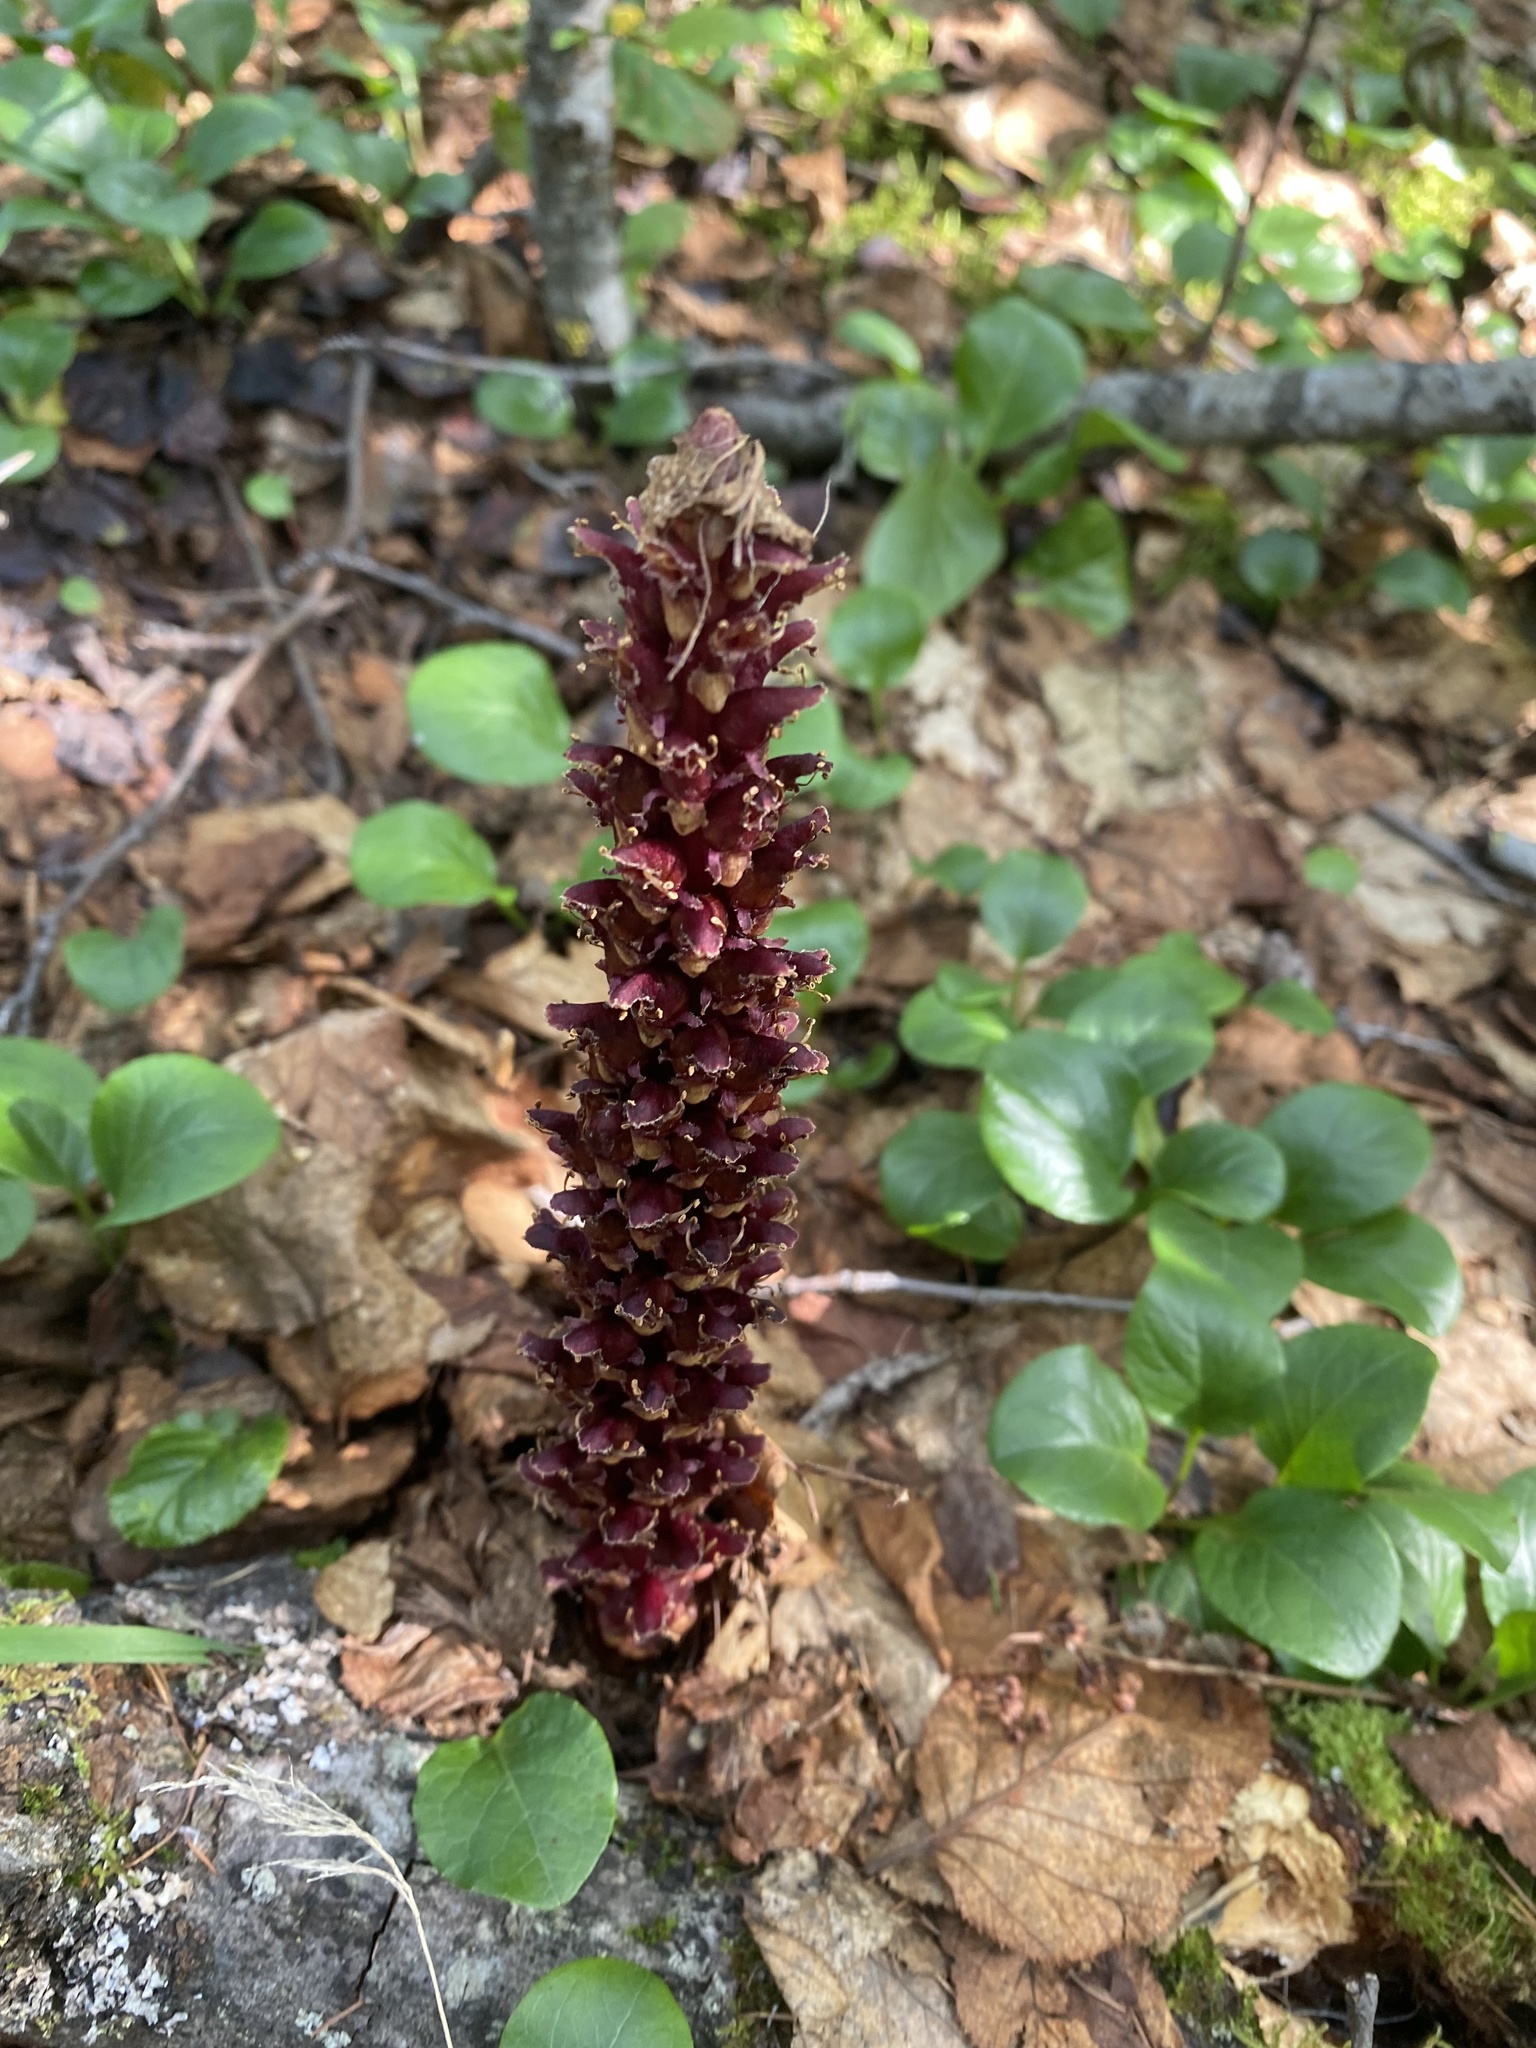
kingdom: Plantae
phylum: Tracheophyta
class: Magnoliopsida
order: Lamiales
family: Orobanchaceae
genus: Boschniakia
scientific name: Boschniakia rossica
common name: Poque
